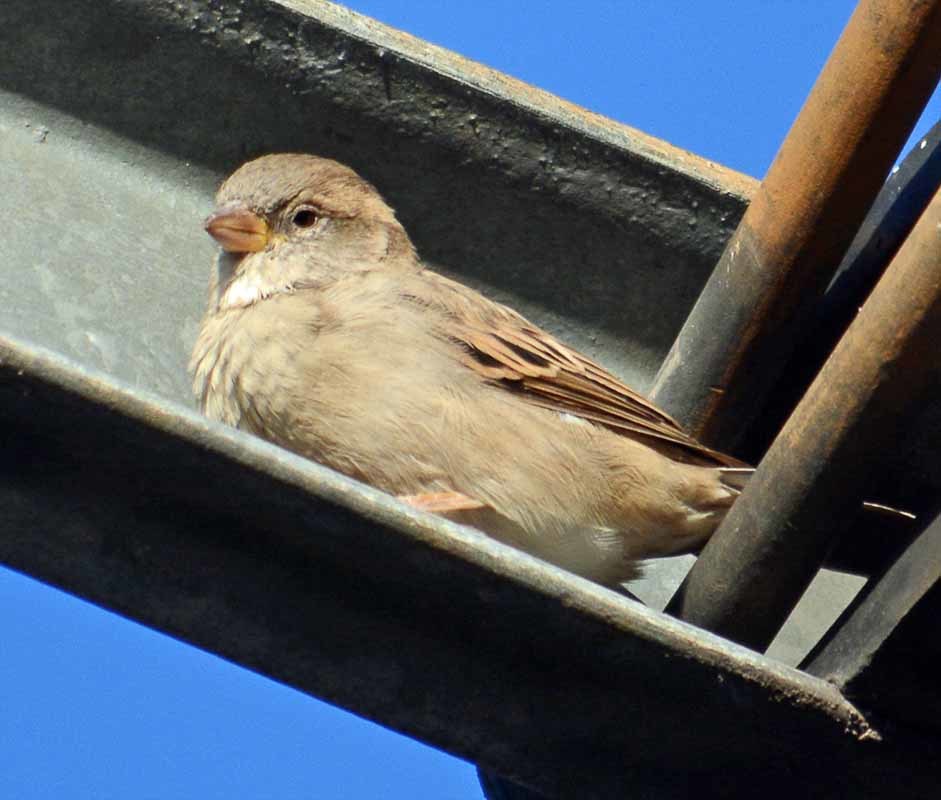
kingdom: Animalia
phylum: Chordata
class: Aves
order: Passeriformes
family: Passeridae
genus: Passer
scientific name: Passer domesticus
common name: House sparrow
